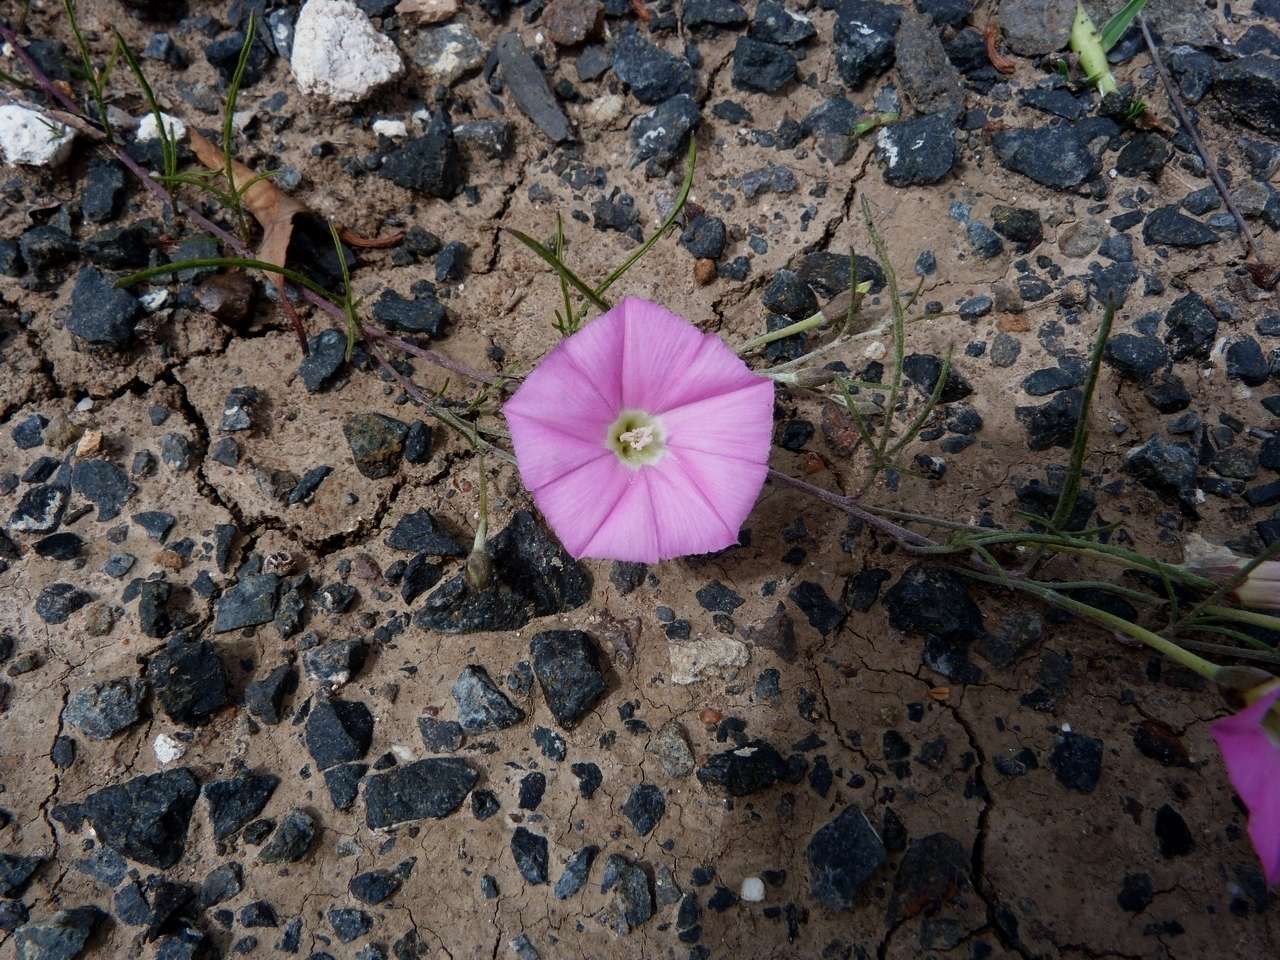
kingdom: Plantae
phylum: Tracheophyta
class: Magnoliopsida
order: Solanales
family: Convolvulaceae
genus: Convolvulus
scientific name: Convolvulus angustissimus
